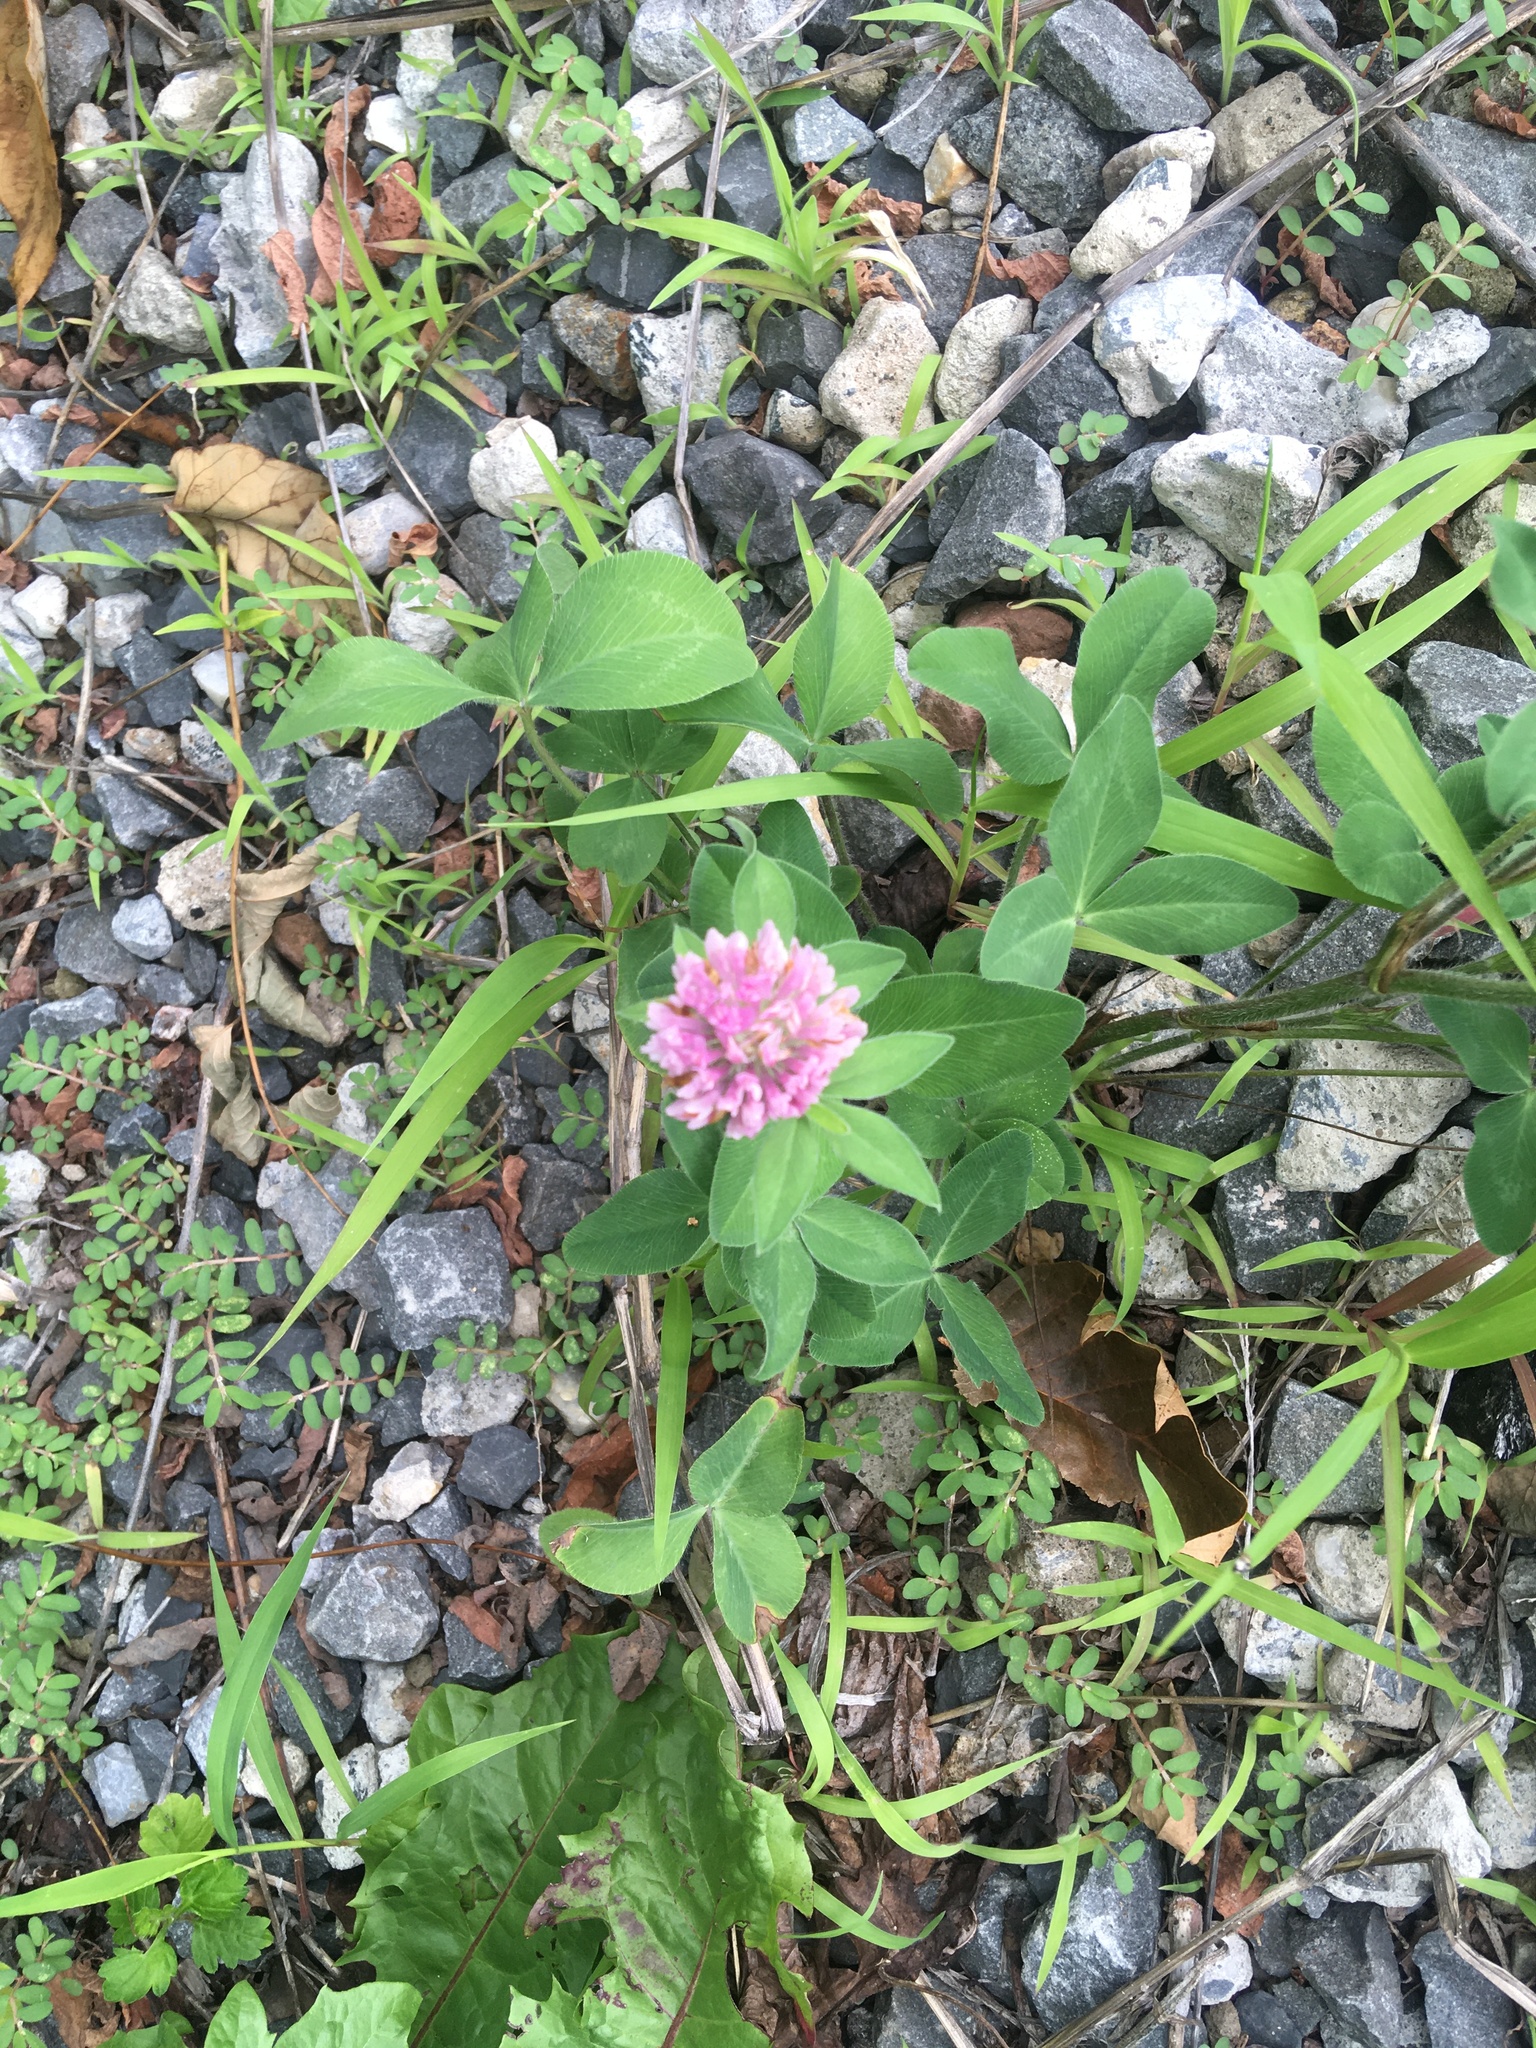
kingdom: Plantae
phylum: Tracheophyta
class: Magnoliopsida
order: Fabales
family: Fabaceae
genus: Trifolium
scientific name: Trifolium pratense
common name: Red clover
